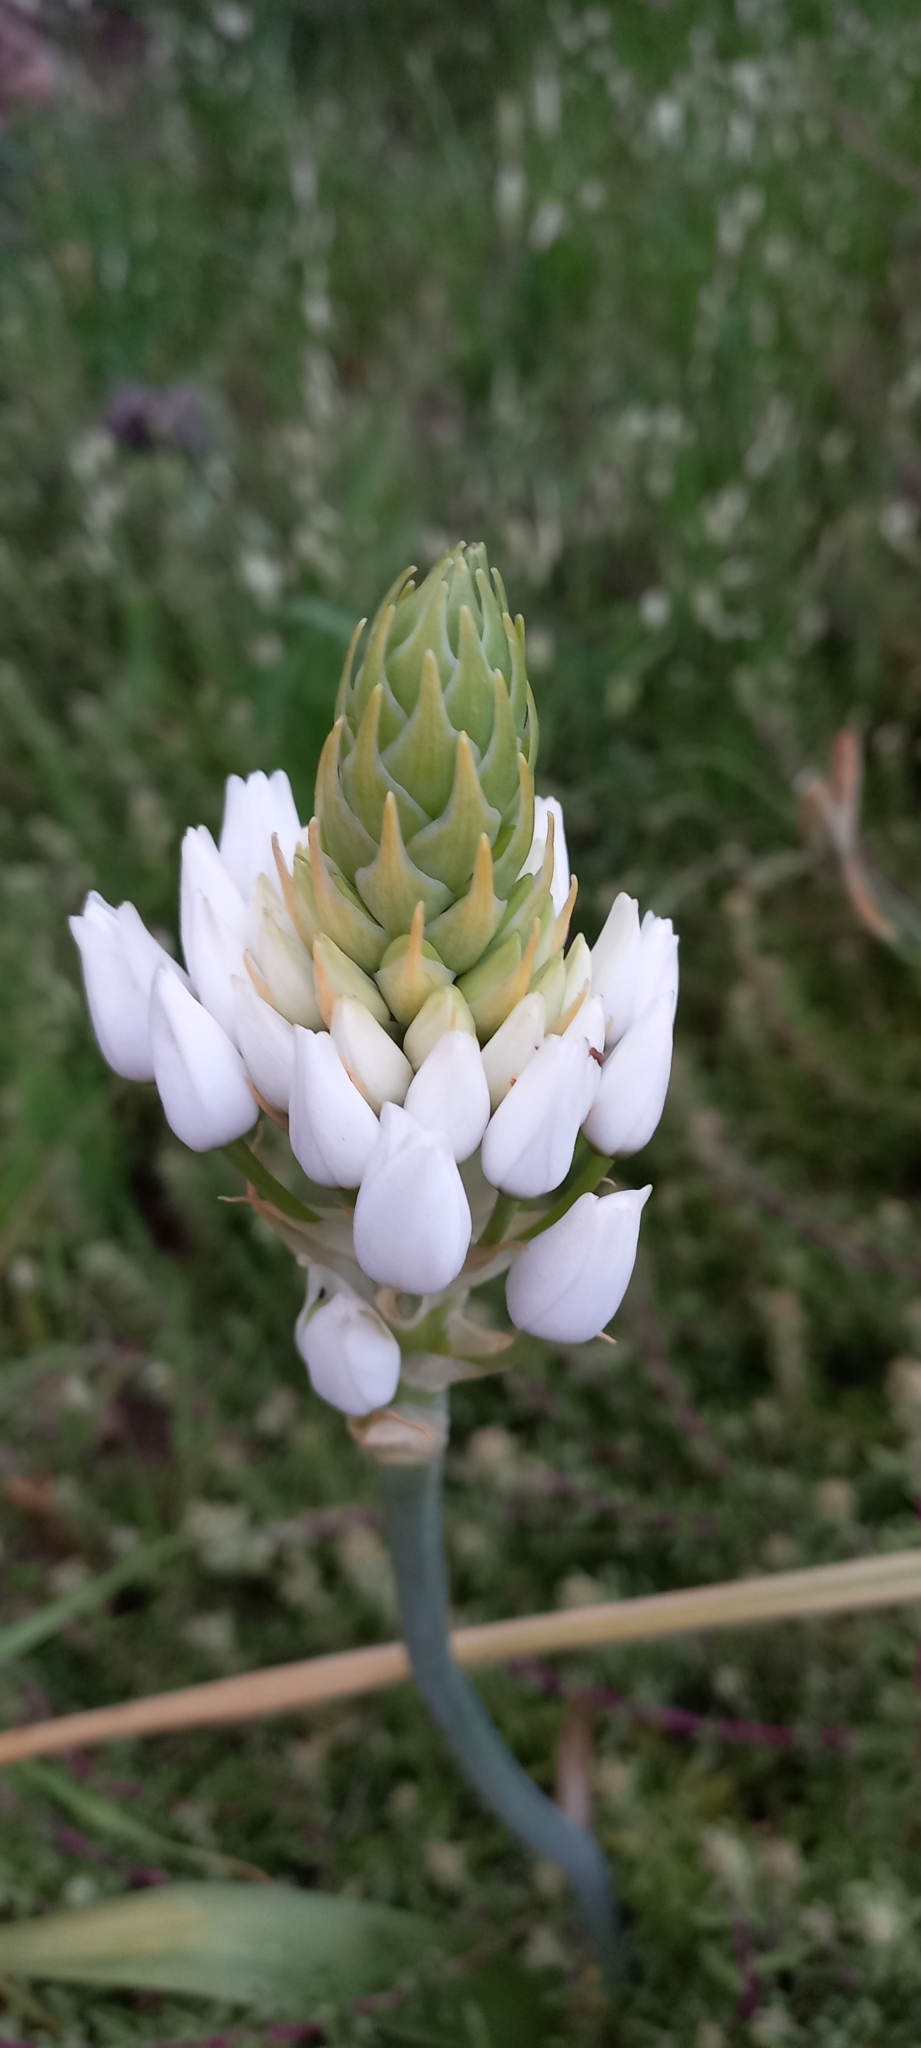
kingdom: Plantae
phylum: Tracheophyta
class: Liliopsida
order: Asparagales
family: Asparagaceae
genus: Ornithogalum
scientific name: Ornithogalum thyrsoides
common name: Chincherinchee
